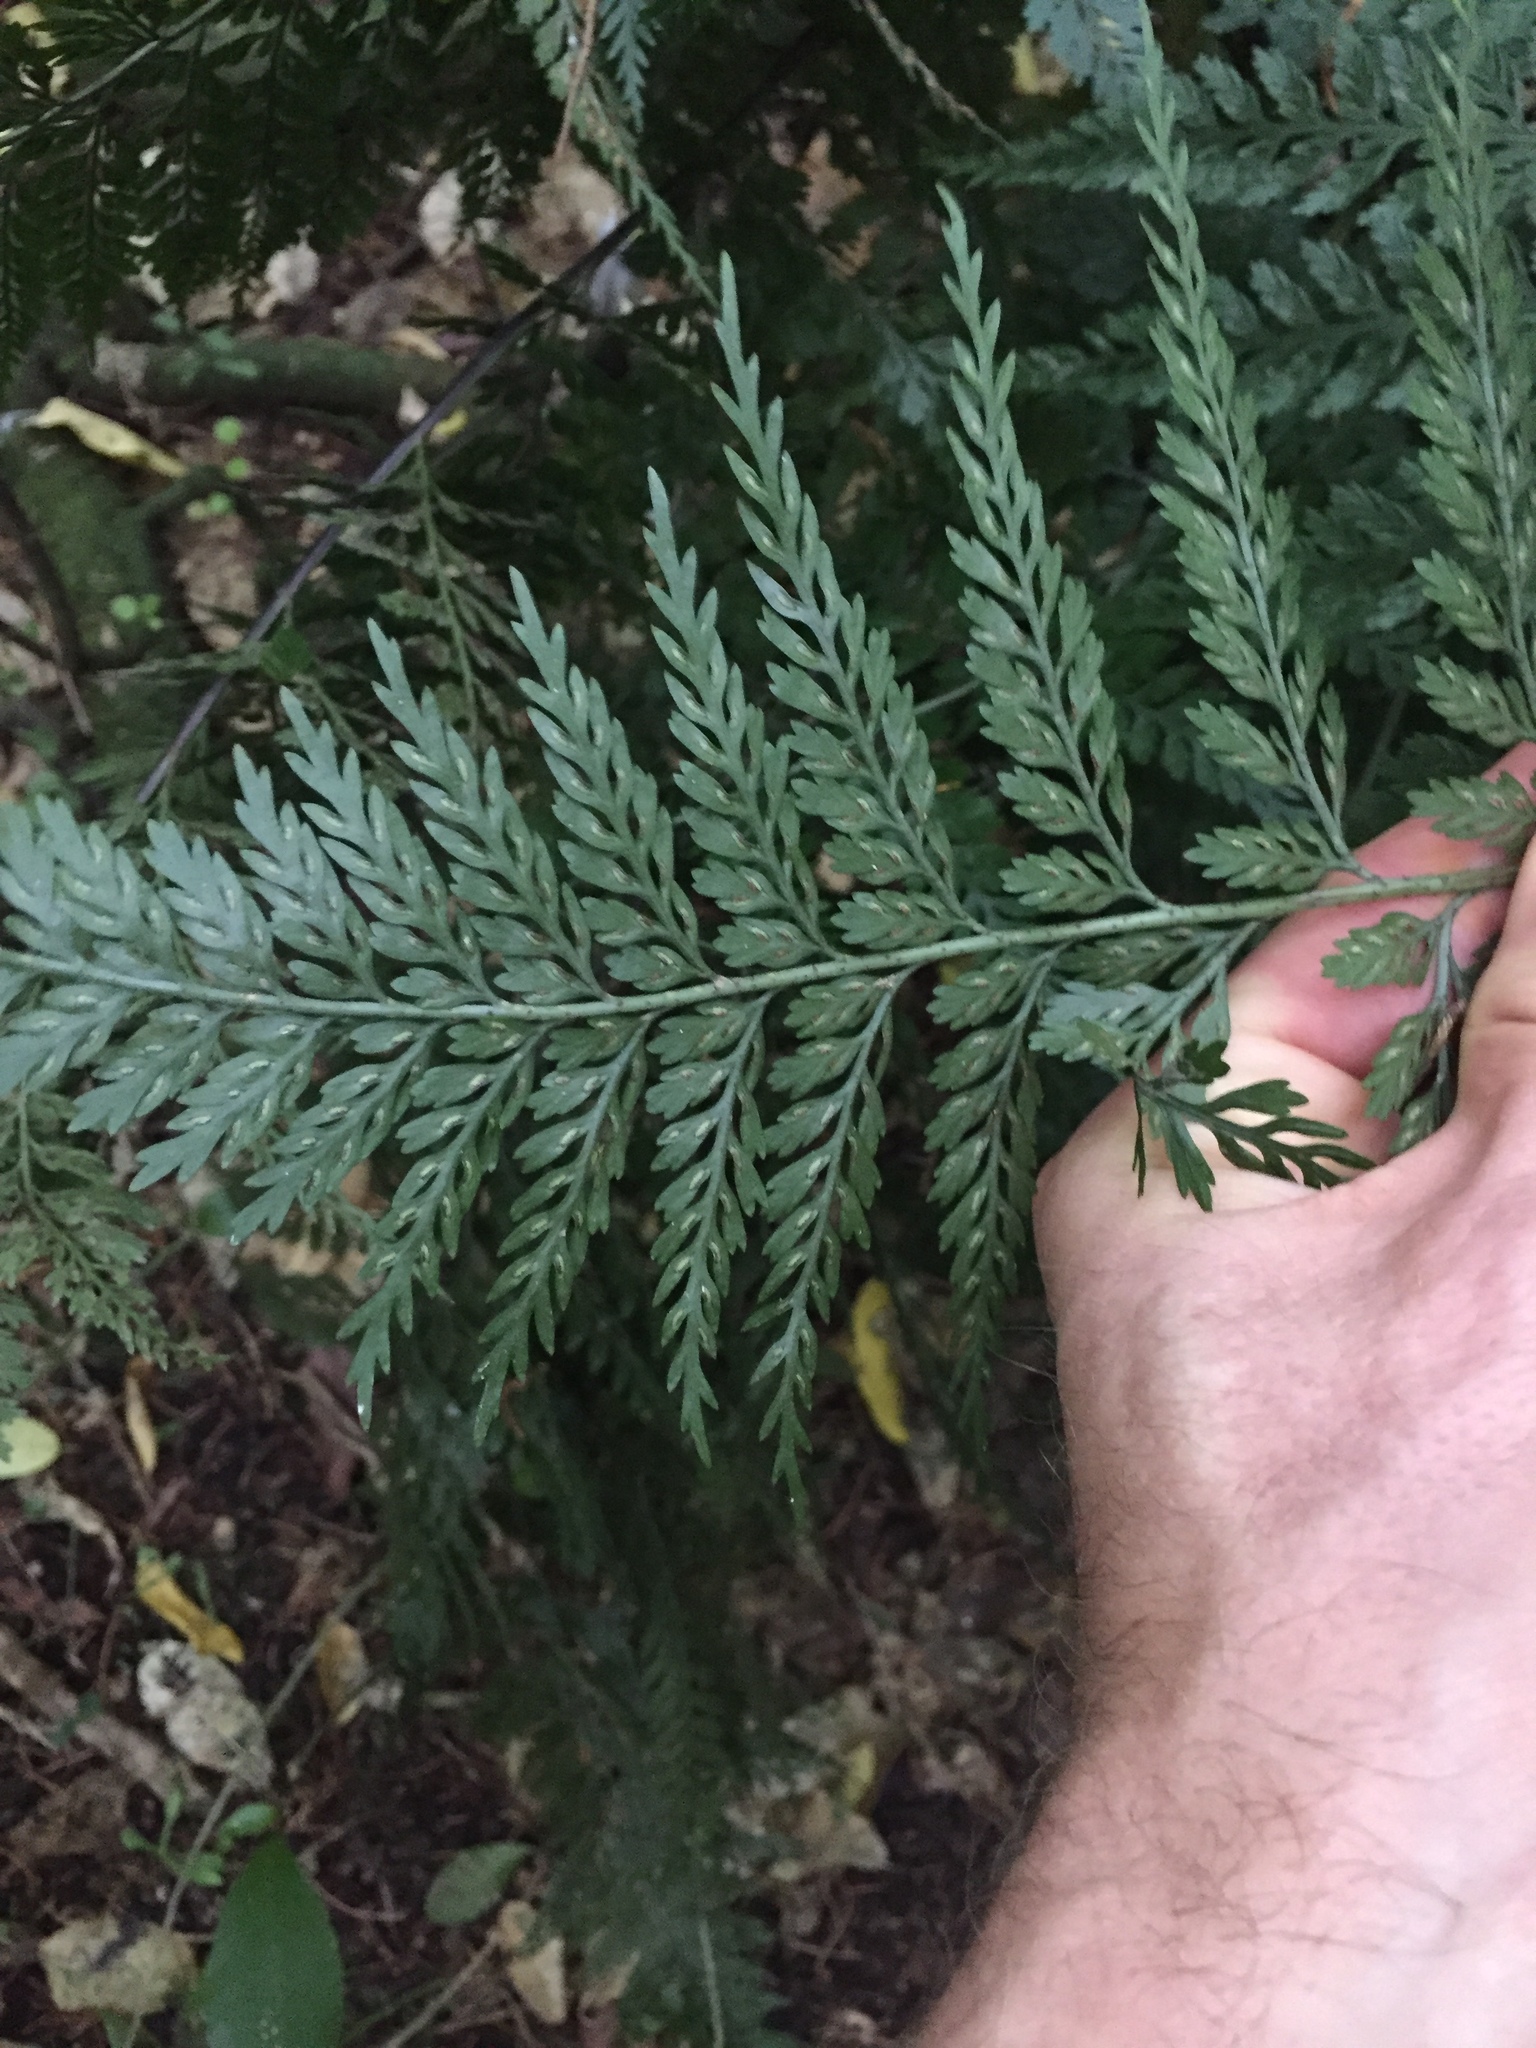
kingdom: Plantae
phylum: Tracheophyta
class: Polypodiopsida
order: Polypodiales
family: Aspleniaceae
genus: Asplenium
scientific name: Asplenium
